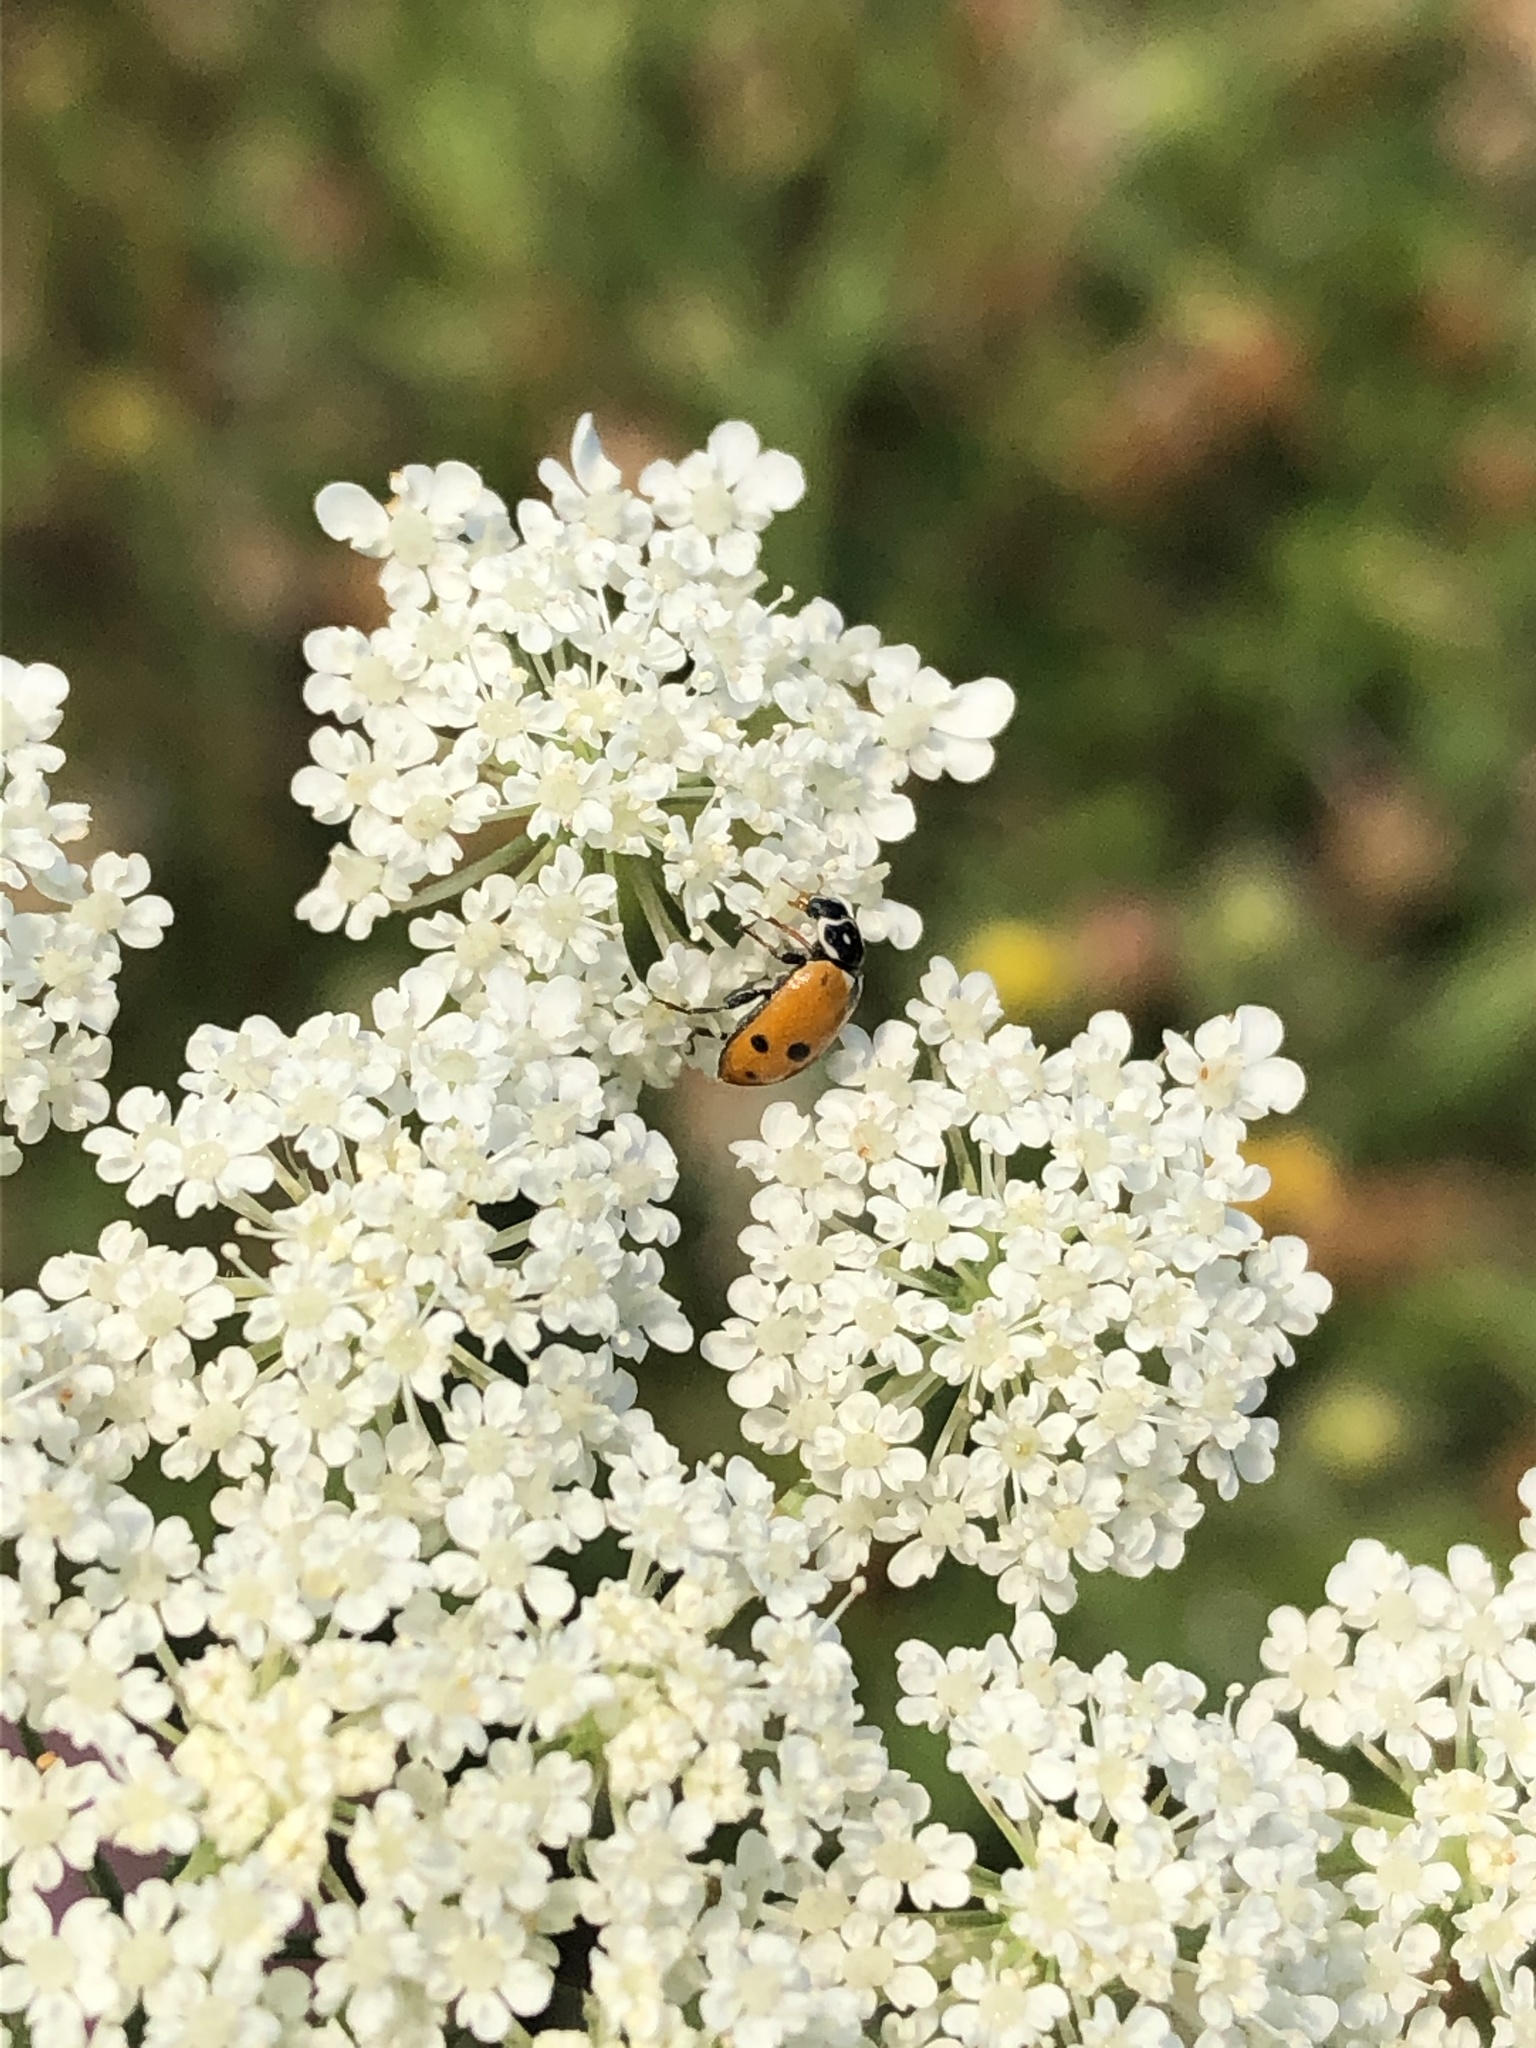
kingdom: Animalia
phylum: Arthropoda
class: Insecta
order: Coleoptera
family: Coccinellidae
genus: Hippodamia
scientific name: Hippodamia variegata
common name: Ladybird beetle
